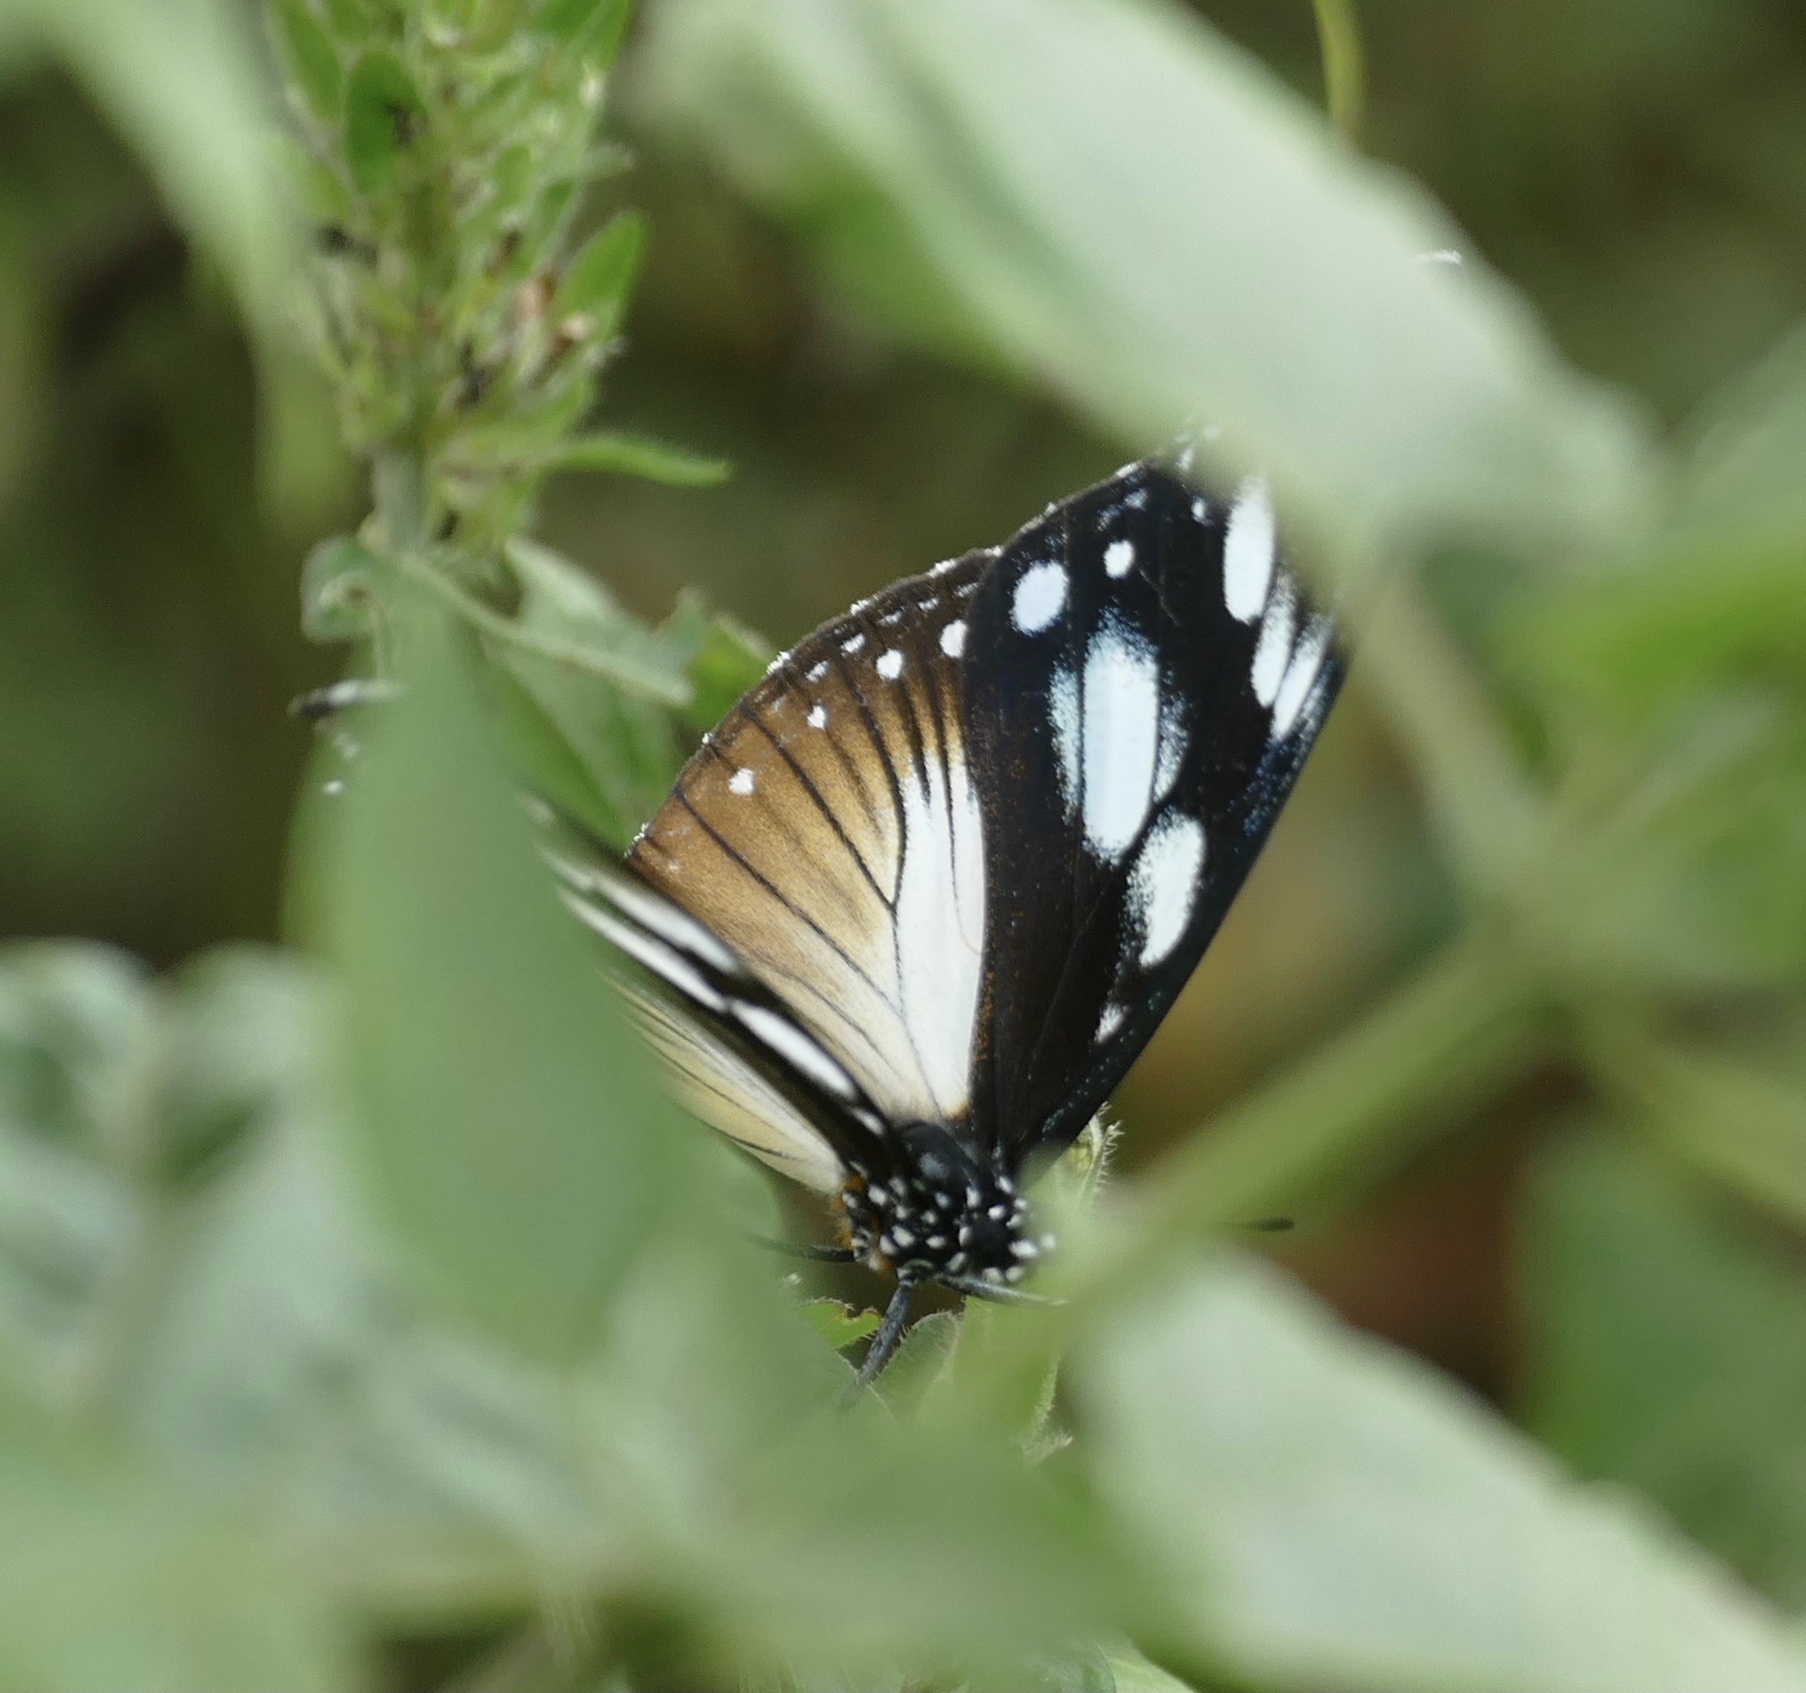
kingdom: Animalia
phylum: Arthropoda
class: Insecta
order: Lepidoptera
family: Nymphalidae
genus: Hypolimnas
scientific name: Hypolimnas dubius
